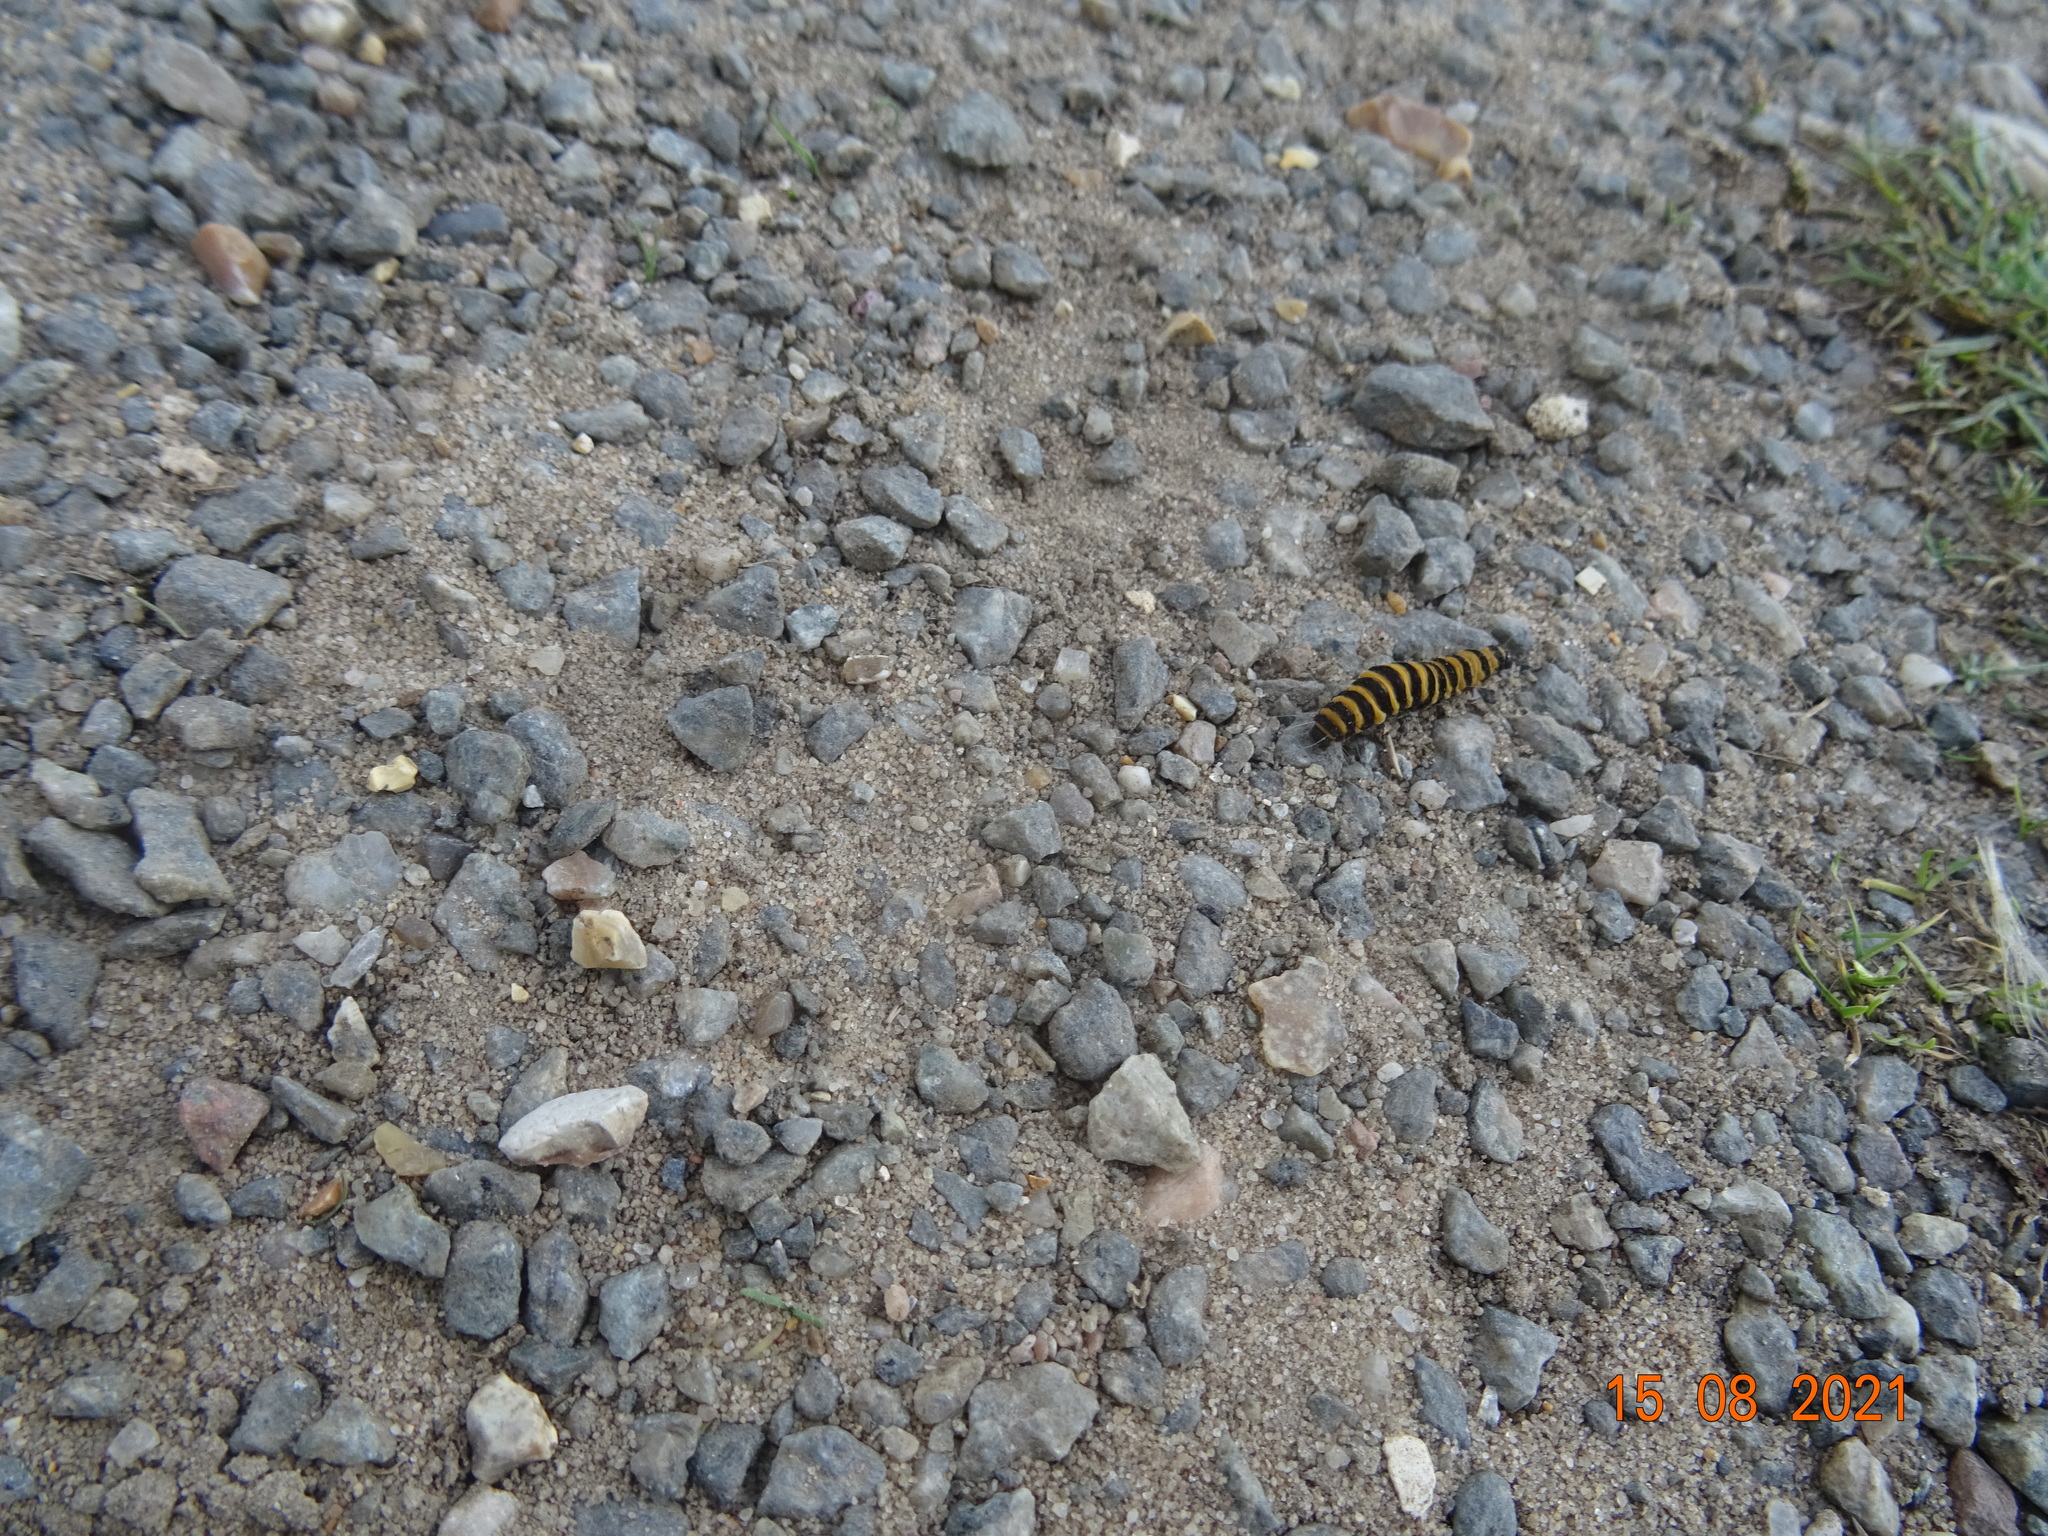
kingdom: Animalia
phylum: Arthropoda
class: Insecta
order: Lepidoptera
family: Erebidae
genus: Tyria
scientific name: Tyria jacobaeae
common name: Cinnabar
